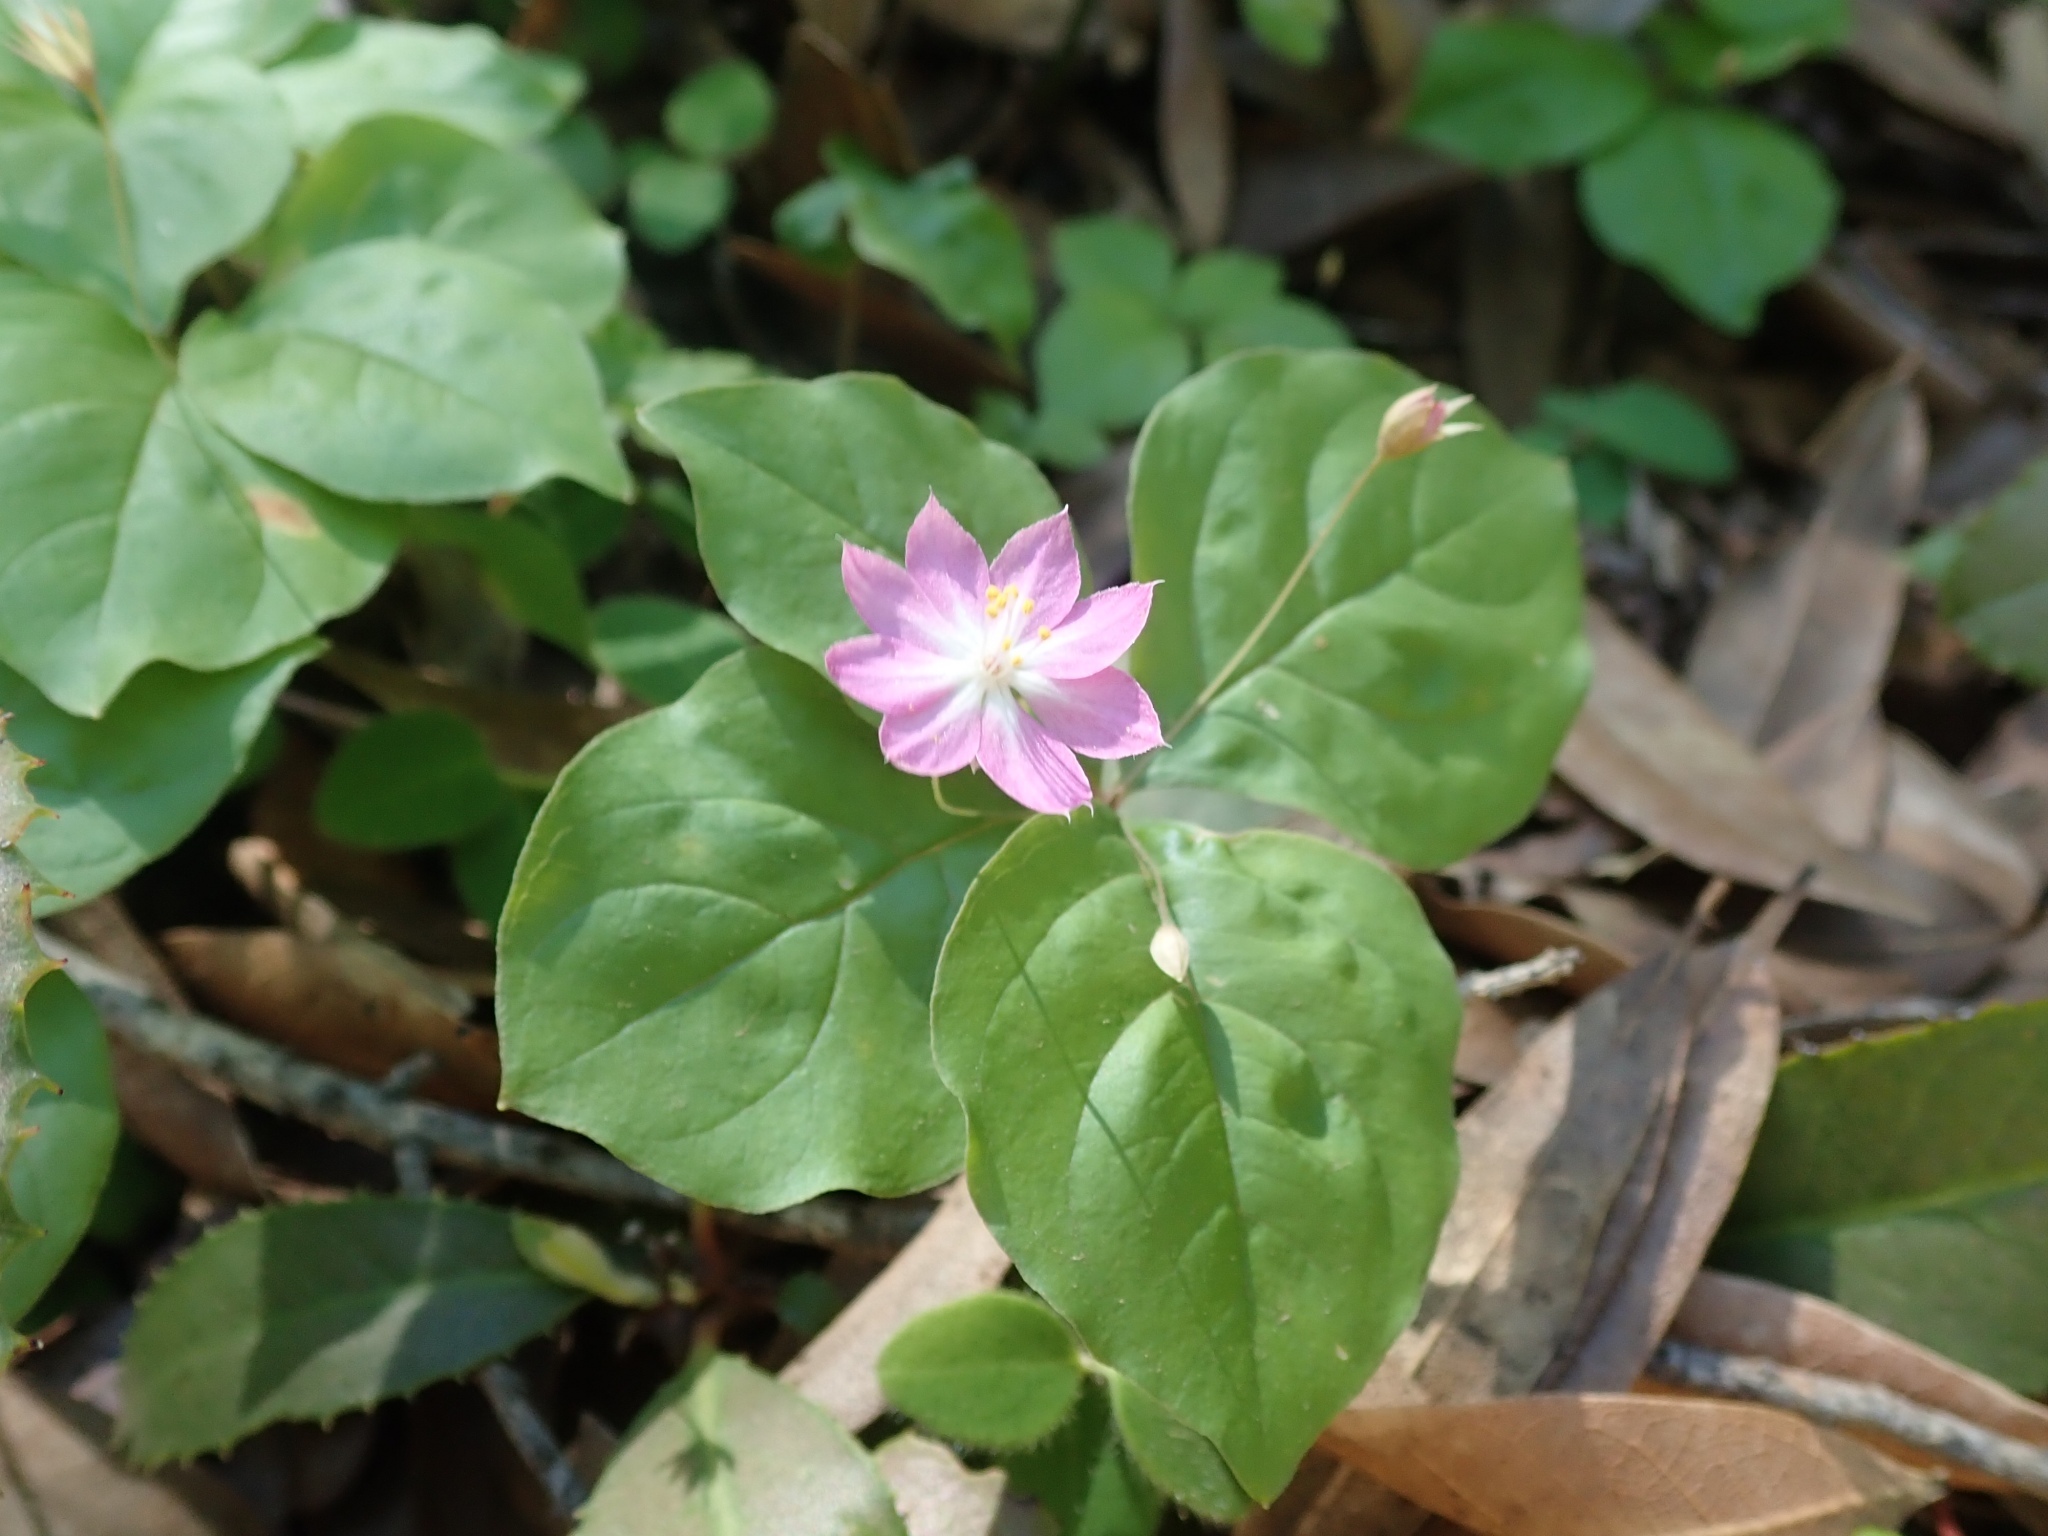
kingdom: Plantae
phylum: Tracheophyta
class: Magnoliopsida
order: Ericales
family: Primulaceae
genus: Lysimachia
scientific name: Lysimachia latifolia
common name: Pacific starflower
